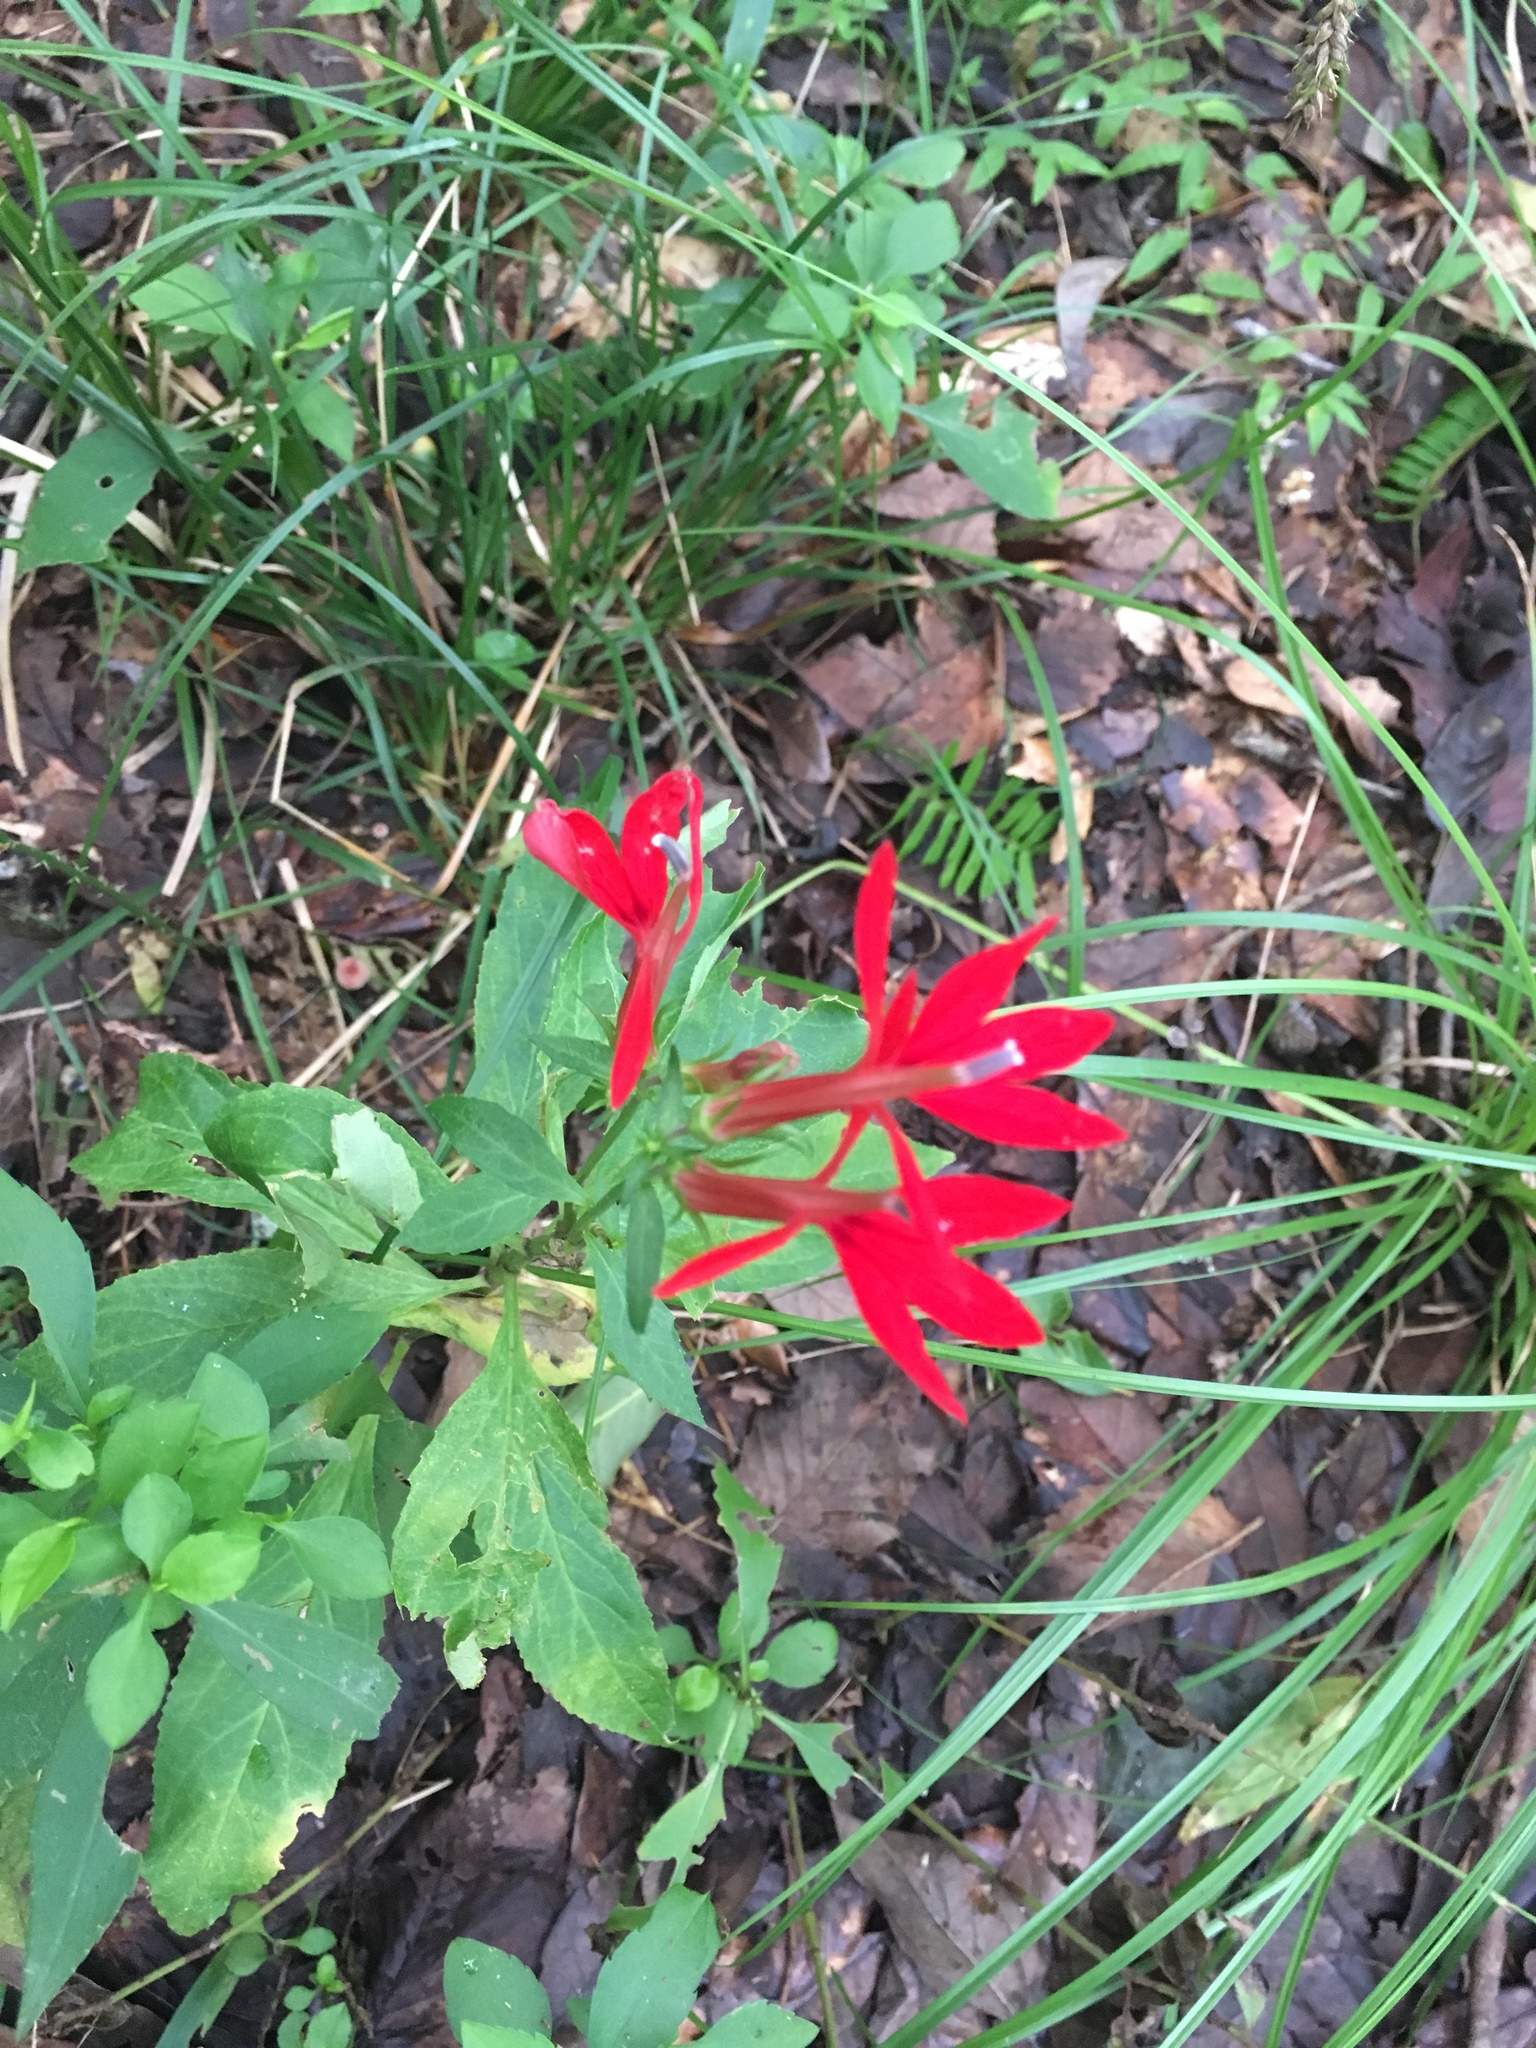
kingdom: Plantae
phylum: Tracheophyta
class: Magnoliopsida
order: Asterales
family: Campanulaceae
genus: Lobelia
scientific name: Lobelia cardinalis
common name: Cardinal flower
